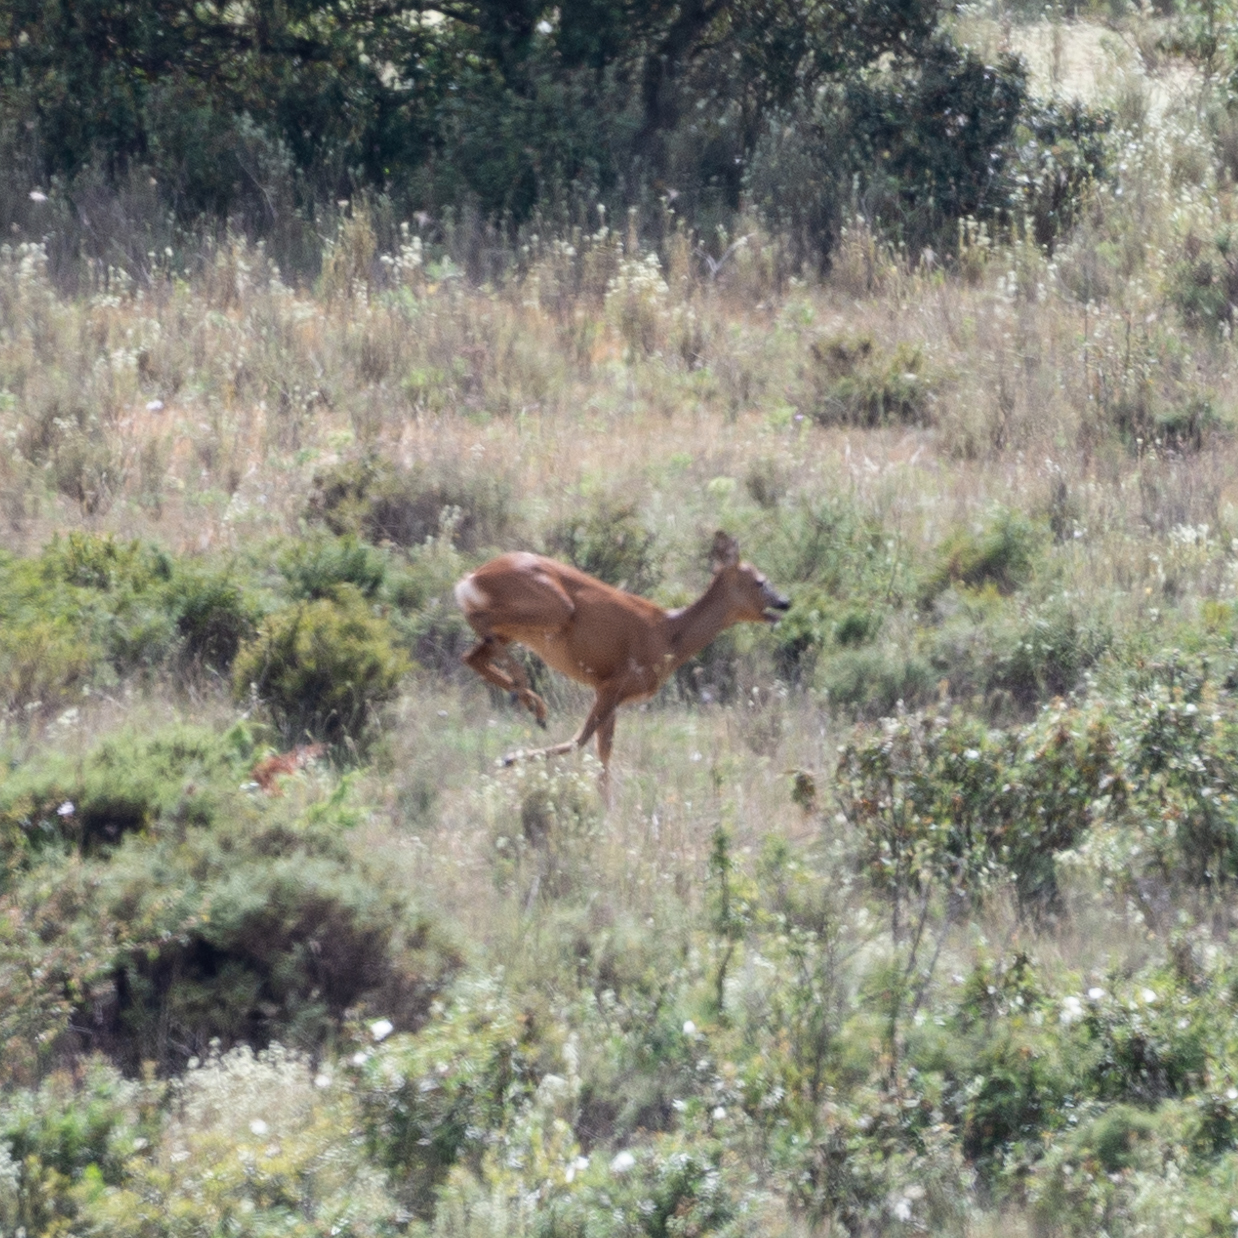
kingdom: Animalia
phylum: Chordata
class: Mammalia
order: Artiodactyla
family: Cervidae
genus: Capreolus
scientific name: Capreolus capreolus
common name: Western roe deer
